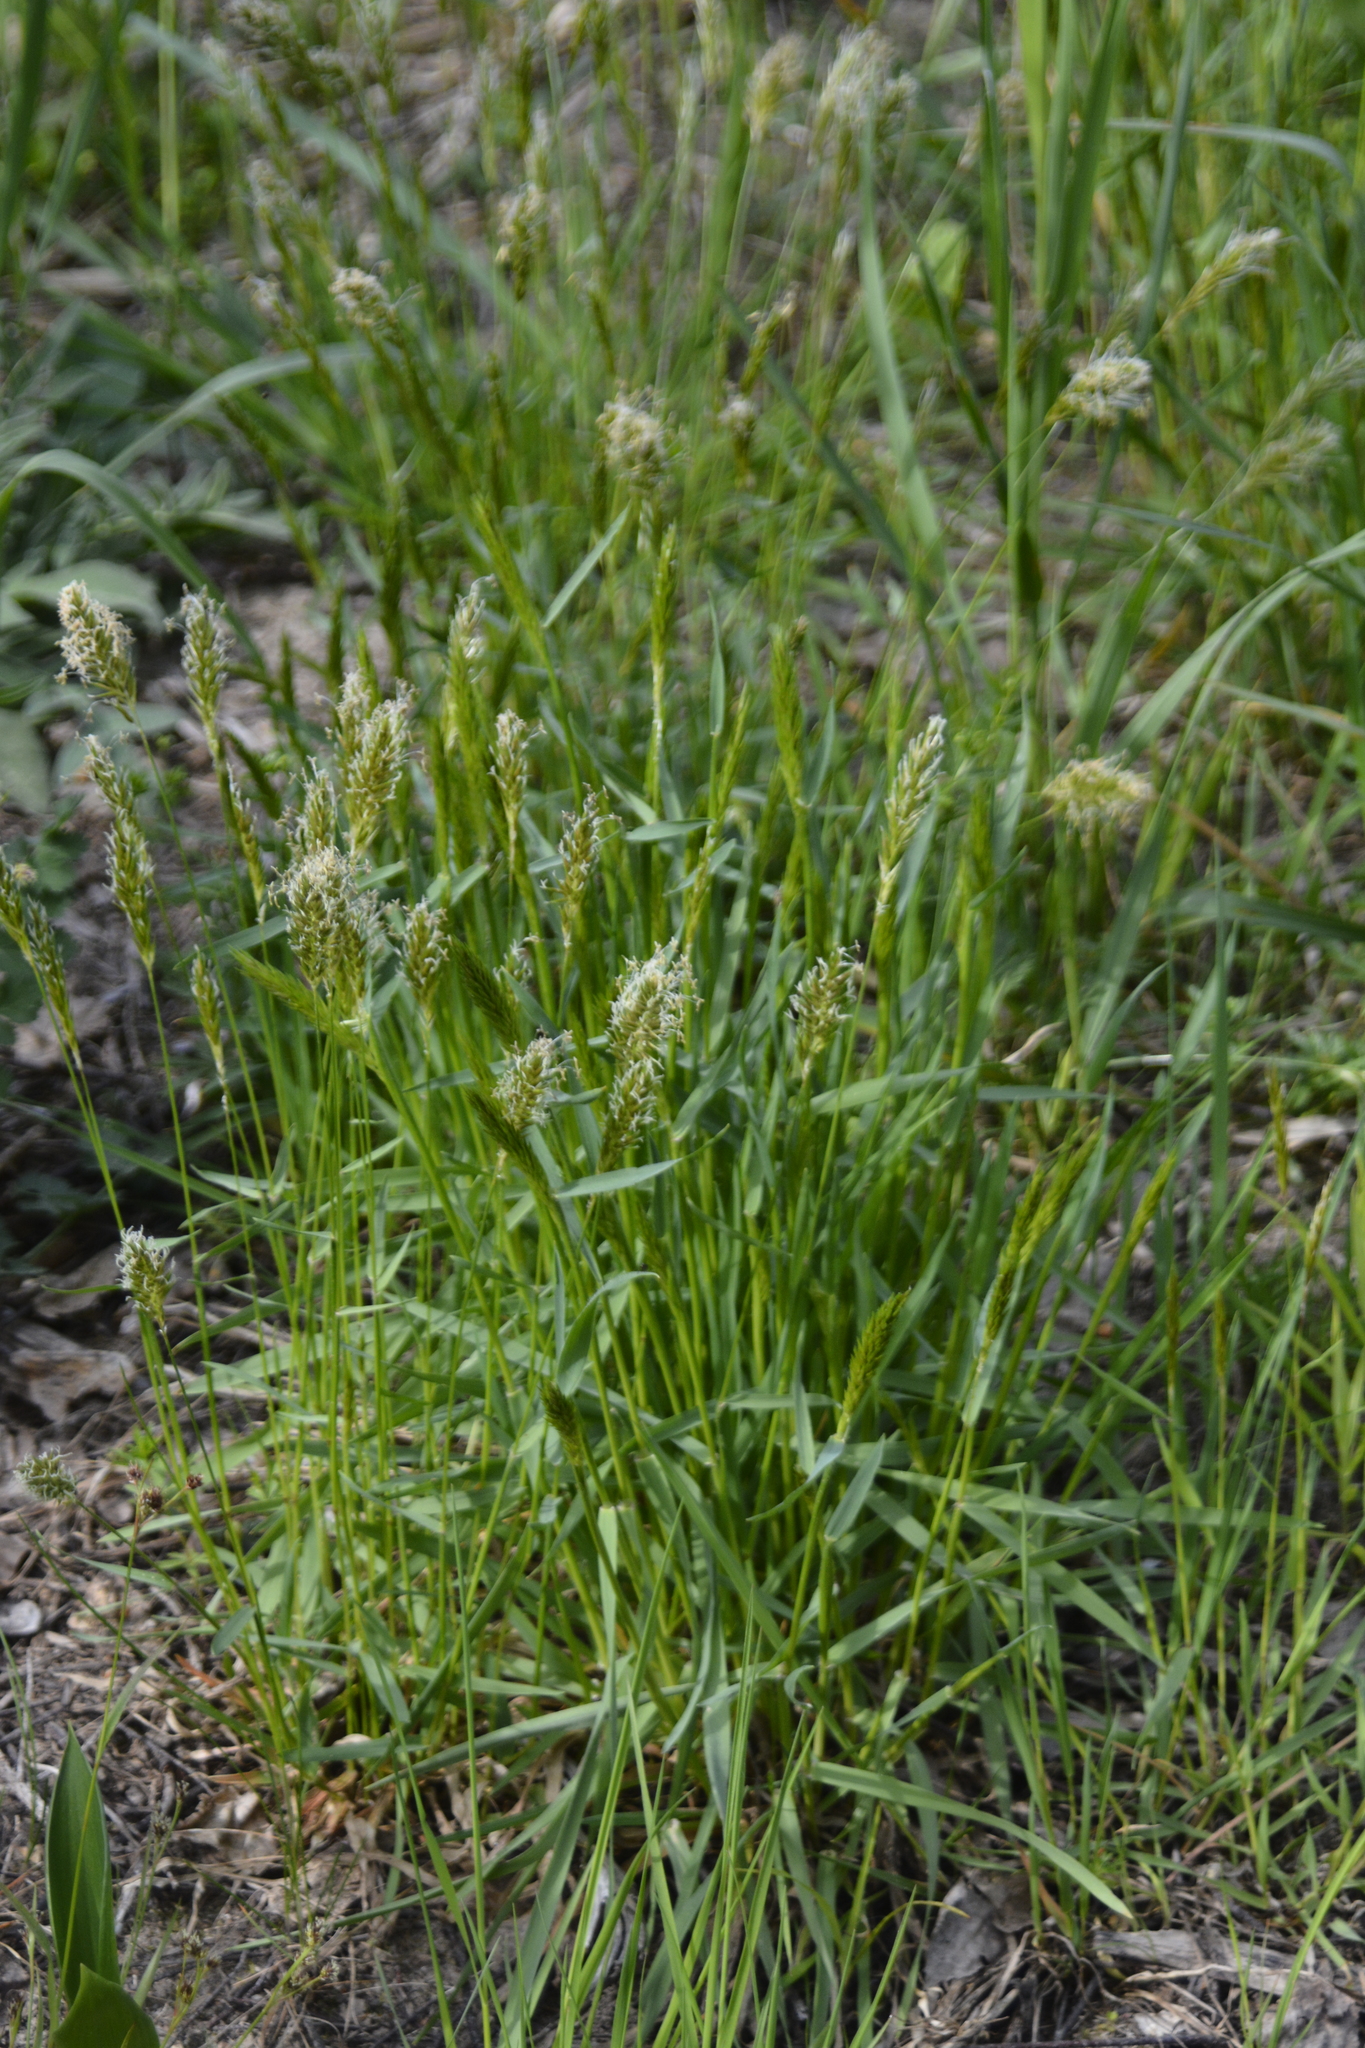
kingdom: Plantae
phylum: Tracheophyta
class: Liliopsida
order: Poales
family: Poaceae
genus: Anthoxanthum
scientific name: Anthoxanthum odoratum
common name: Sweet vernalgrass
